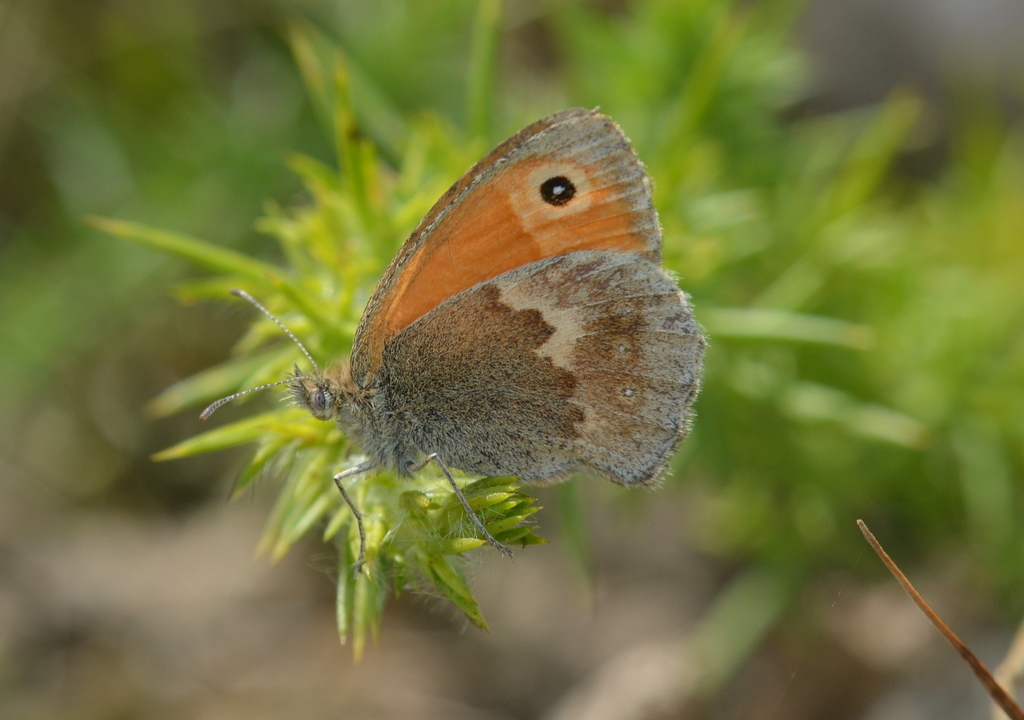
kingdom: Animalia
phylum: Arthropoda
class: Insecta
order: Lepidoptera
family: Nymphalidae
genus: Coenonympha
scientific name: Coenonympha pamphilus
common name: Small heath
